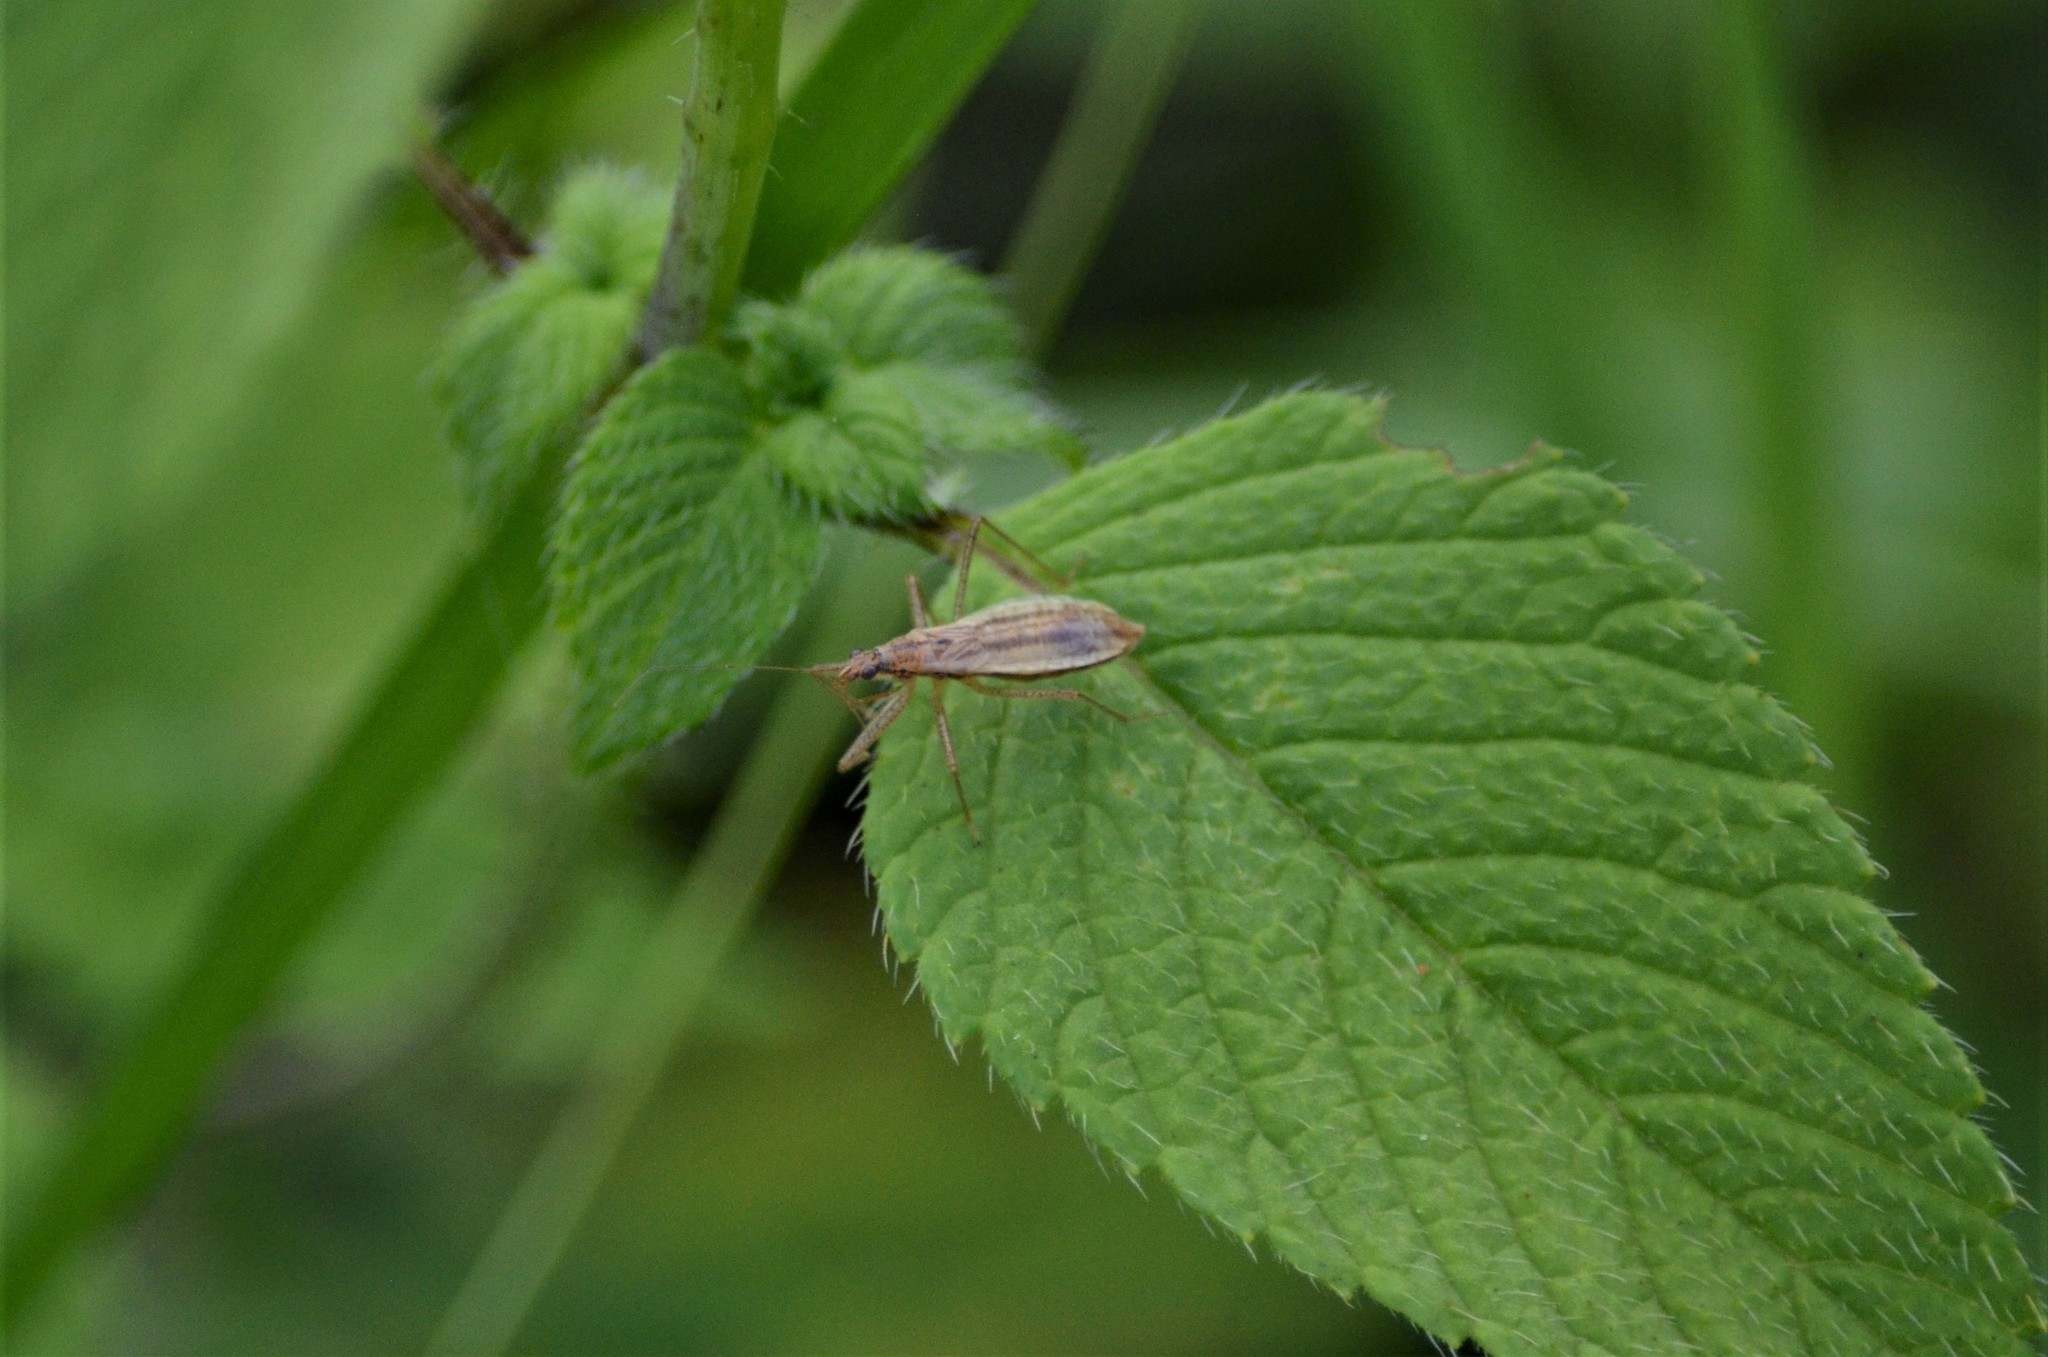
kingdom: Animalia
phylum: Arthropoda
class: Insecta
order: Hemiptera
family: Nabidae
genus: Nabis
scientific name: Nabis limbatus
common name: Marsh damselbug
